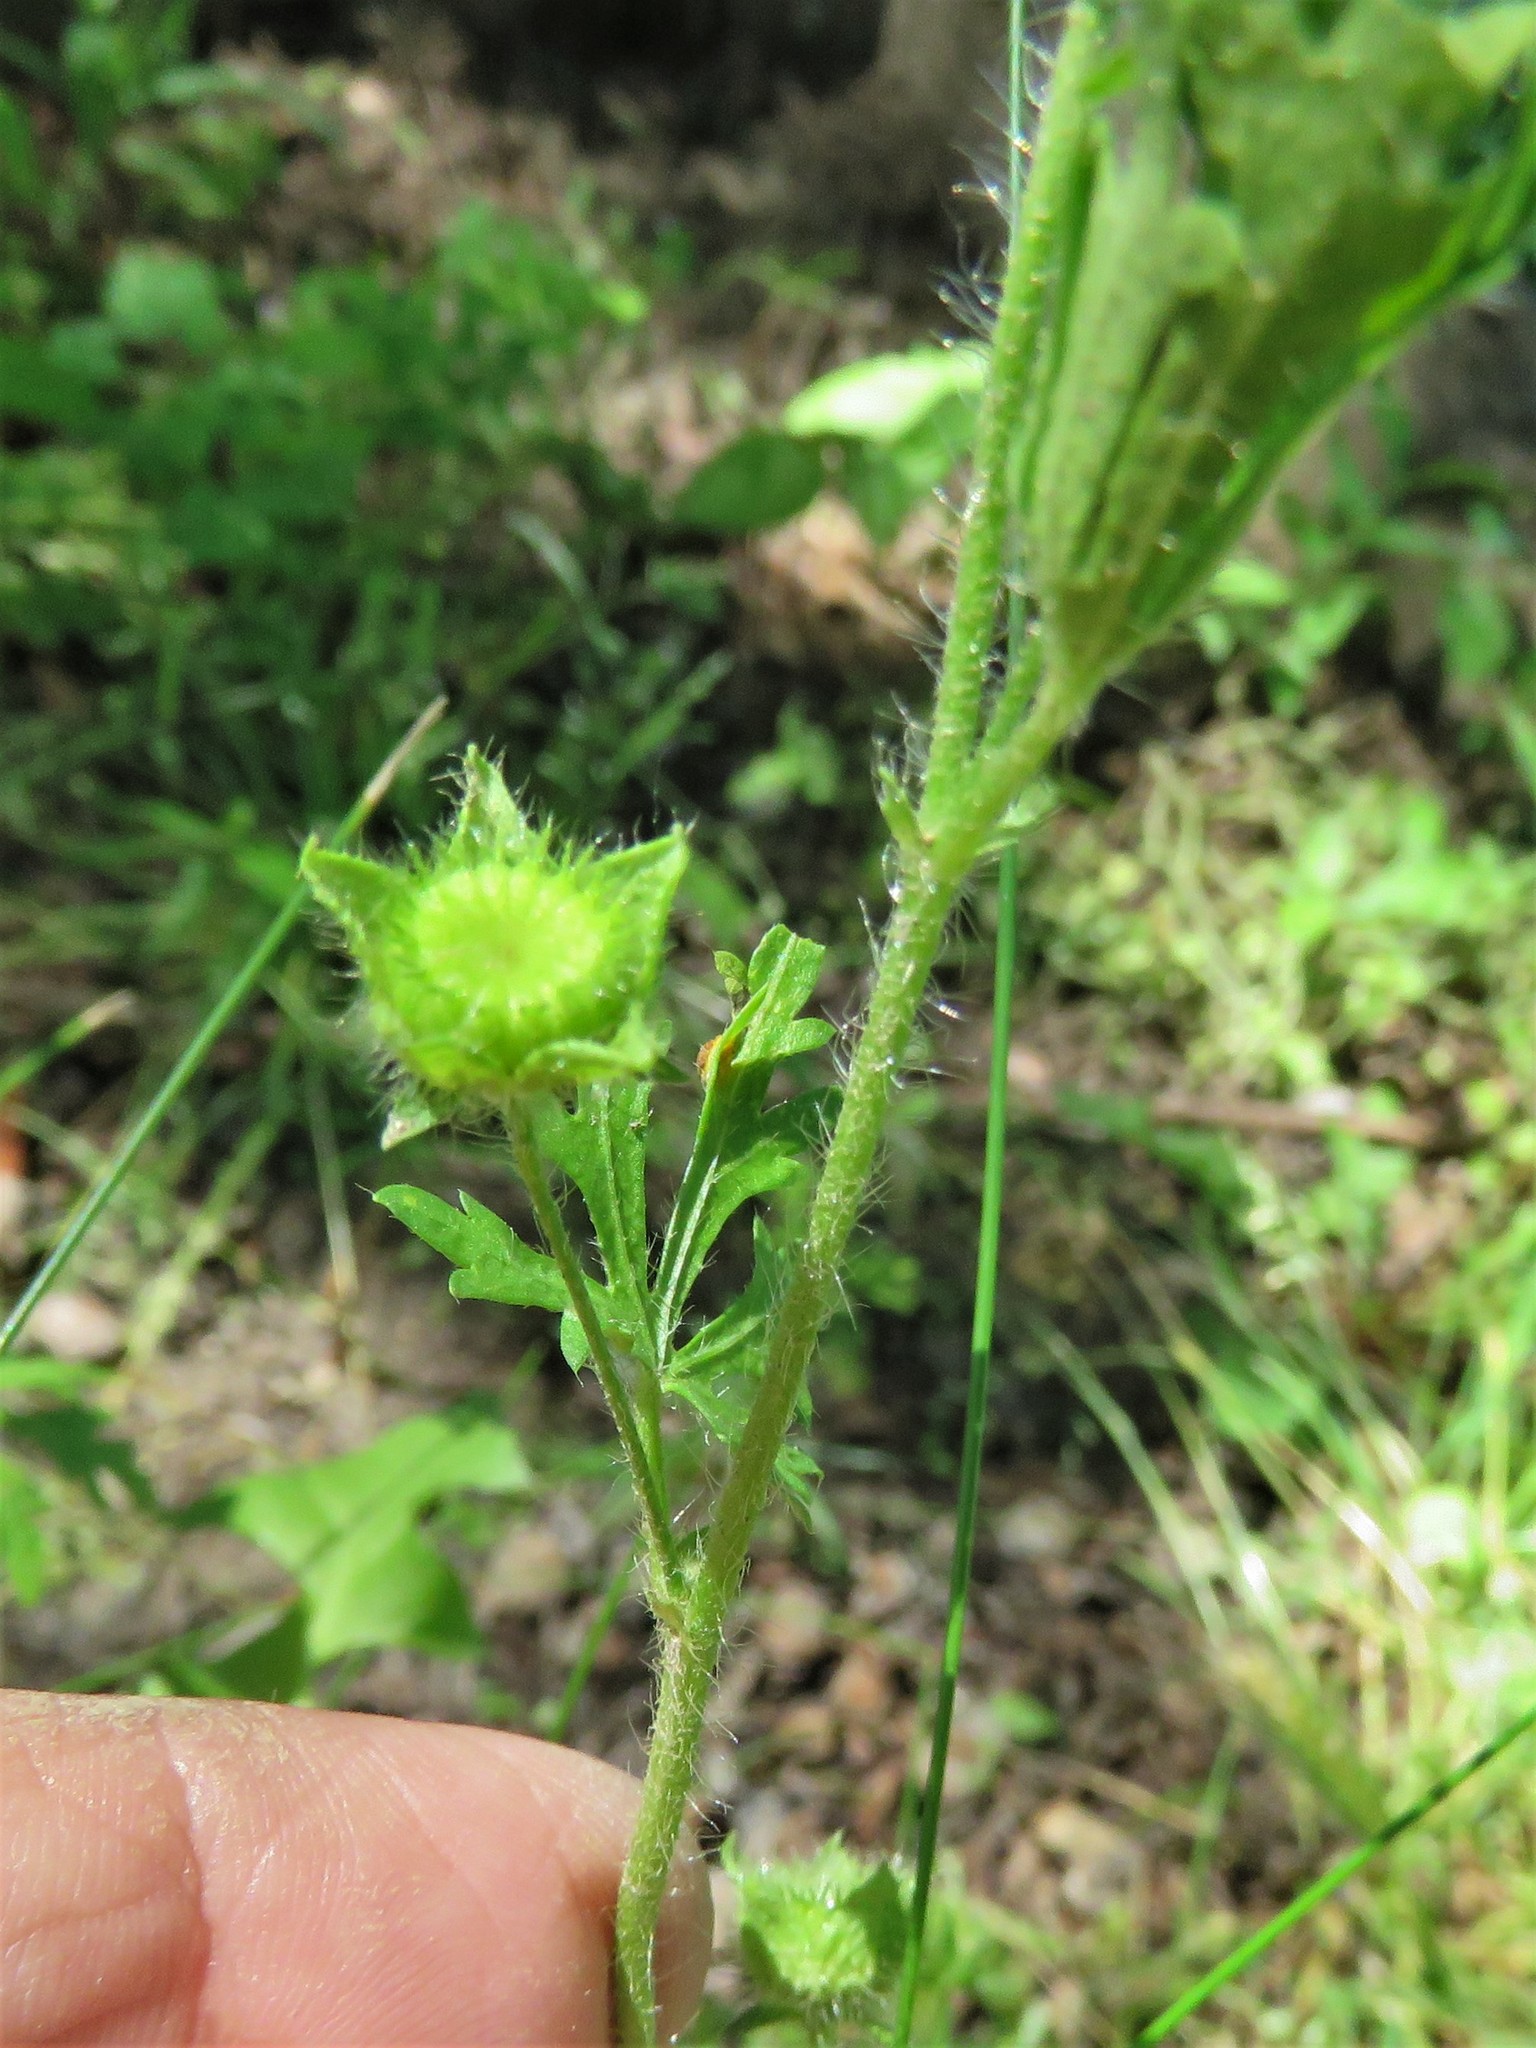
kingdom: Plantae
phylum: Tracheophyta
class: Magnoliopsida
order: Malvales
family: Malvaceae
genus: Modiola
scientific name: Modiola caroliniana
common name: Carolina bristlemallow
